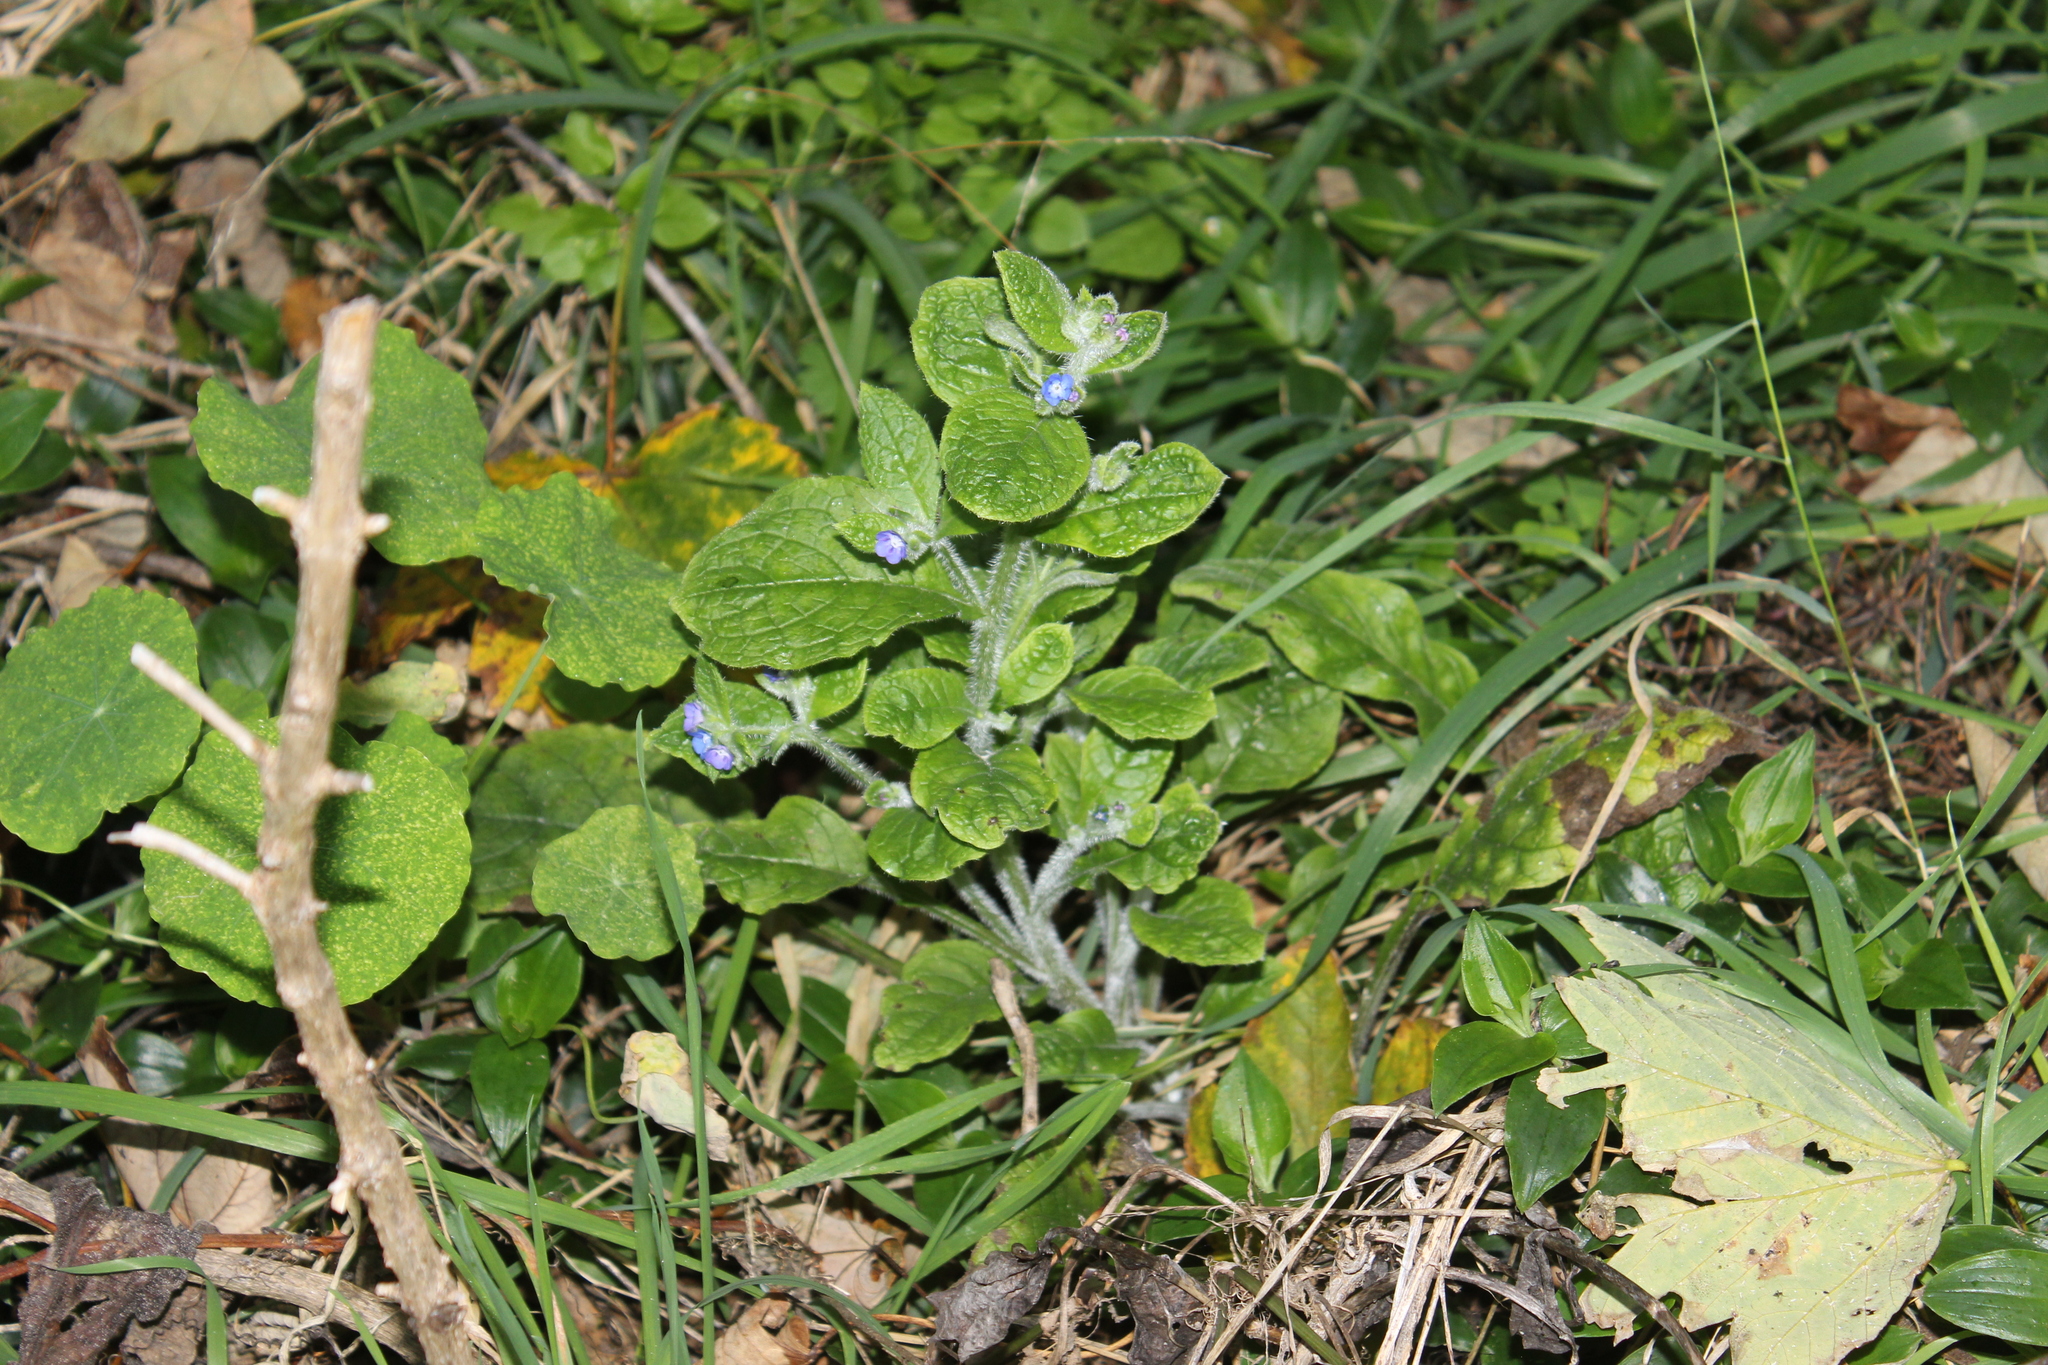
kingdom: Plantae
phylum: Tracheophyta
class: Magnoliopsida
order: Boraginales
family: Boraginaceae
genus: Myosotis
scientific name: Myosotis sylvatica
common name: Wood forget-me-not
